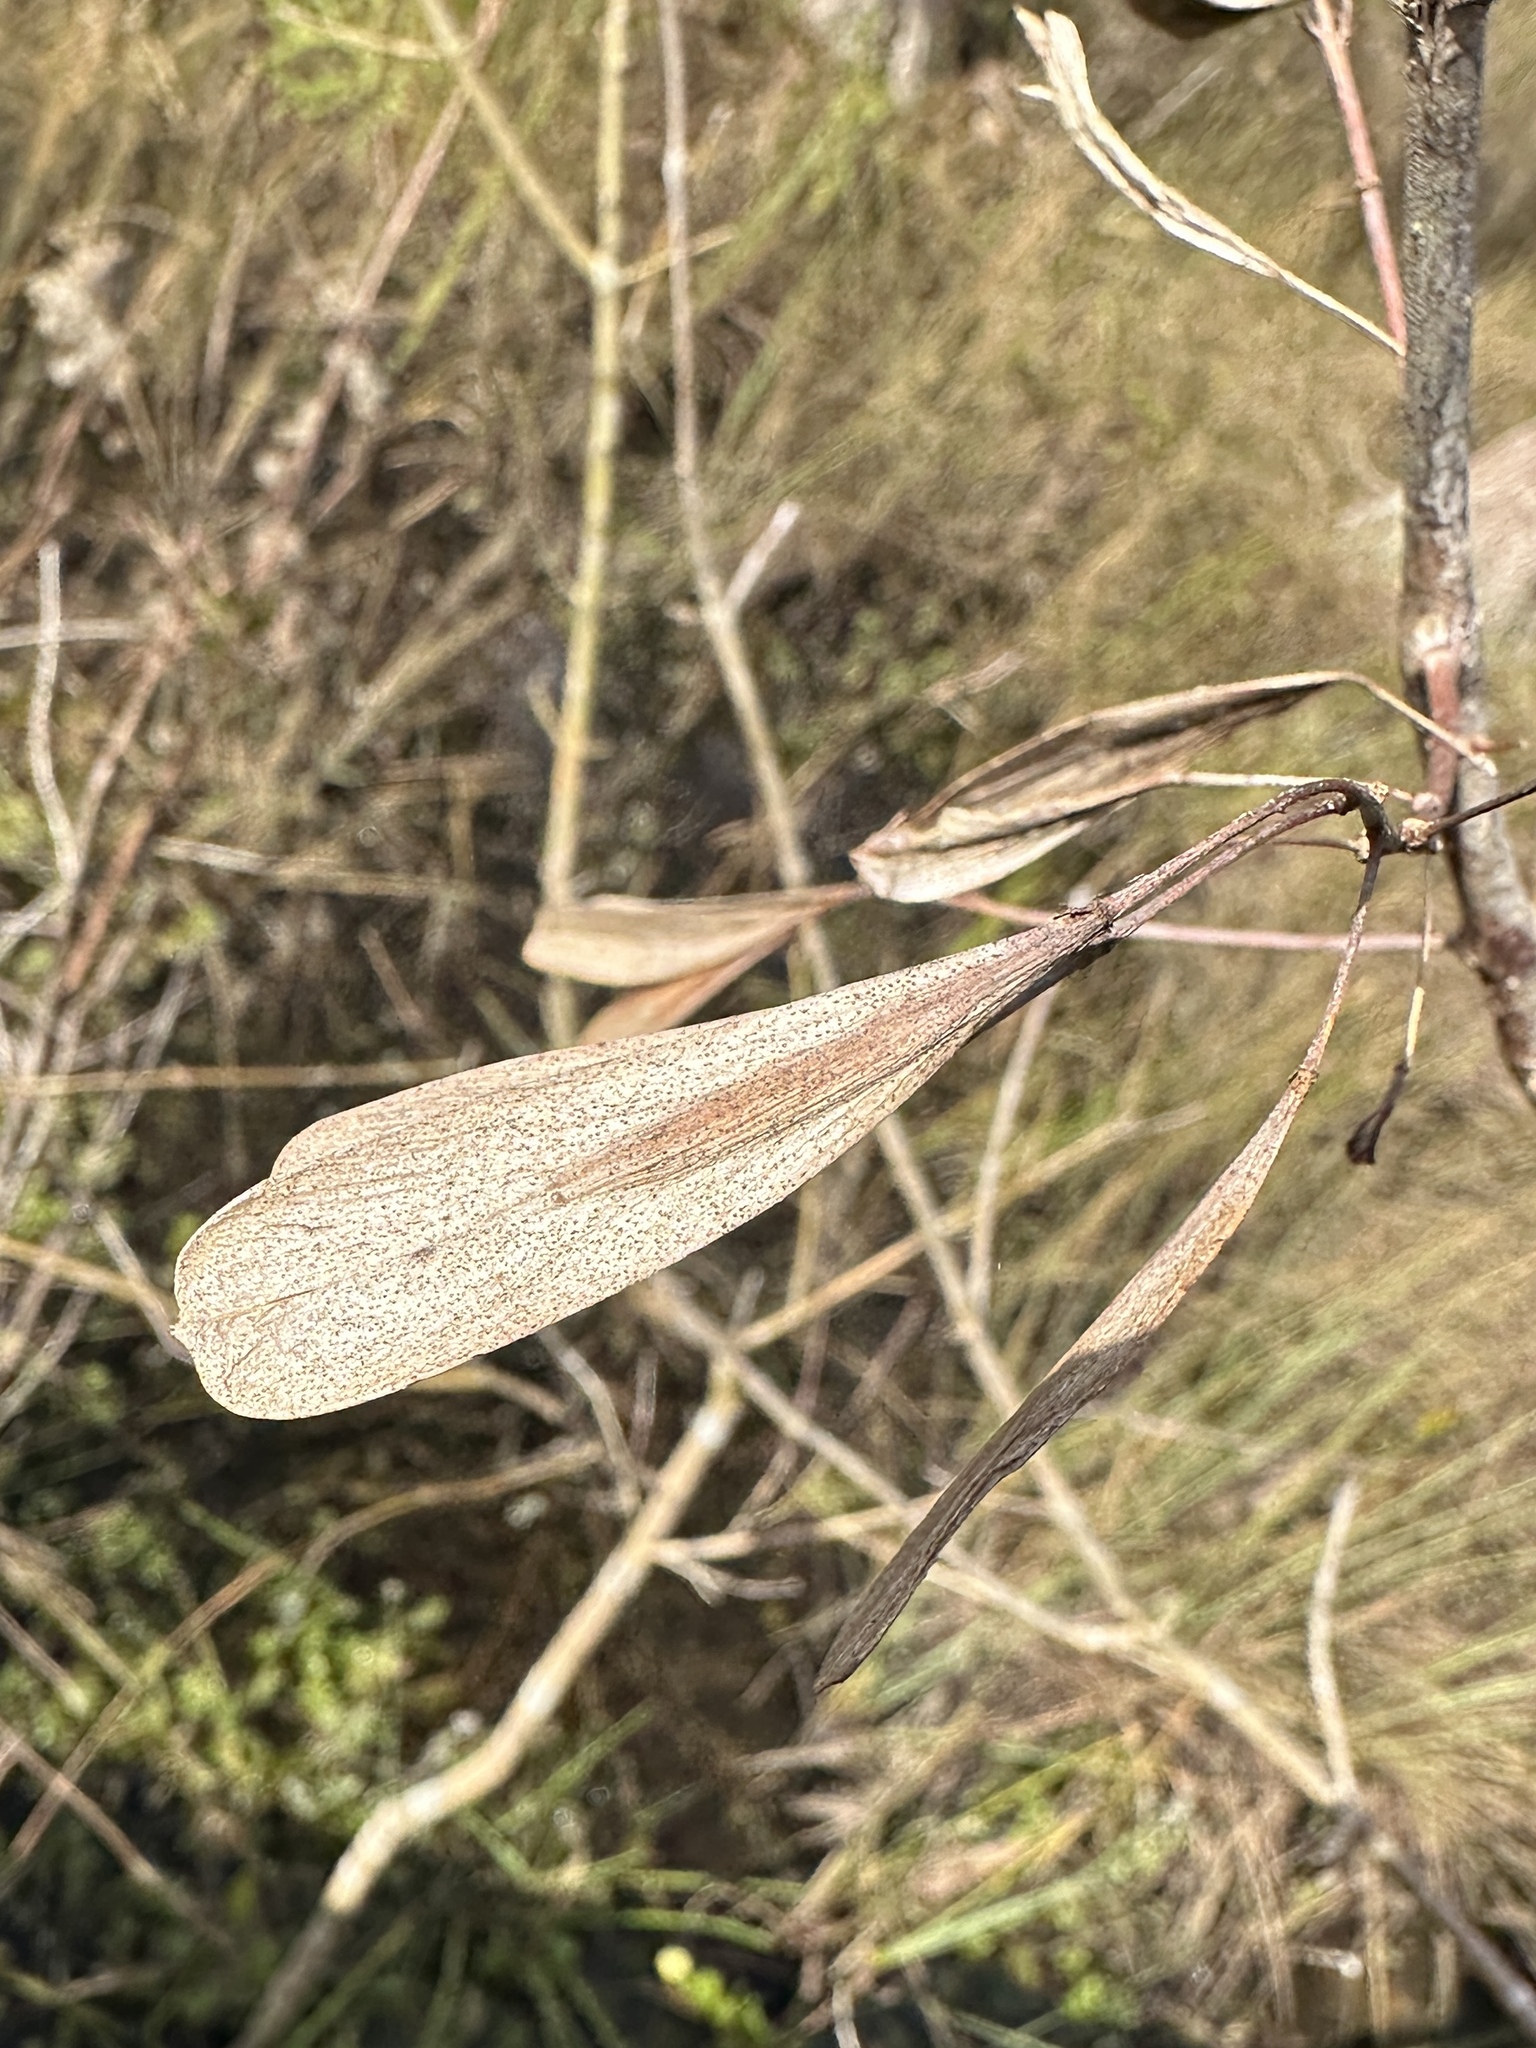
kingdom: Plantae
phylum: Tracheophyta
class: Magnoliopsida
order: Lamiales
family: Oleaceae
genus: Fraxinus
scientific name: Fraxinus caroliniana
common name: Carolina ash
